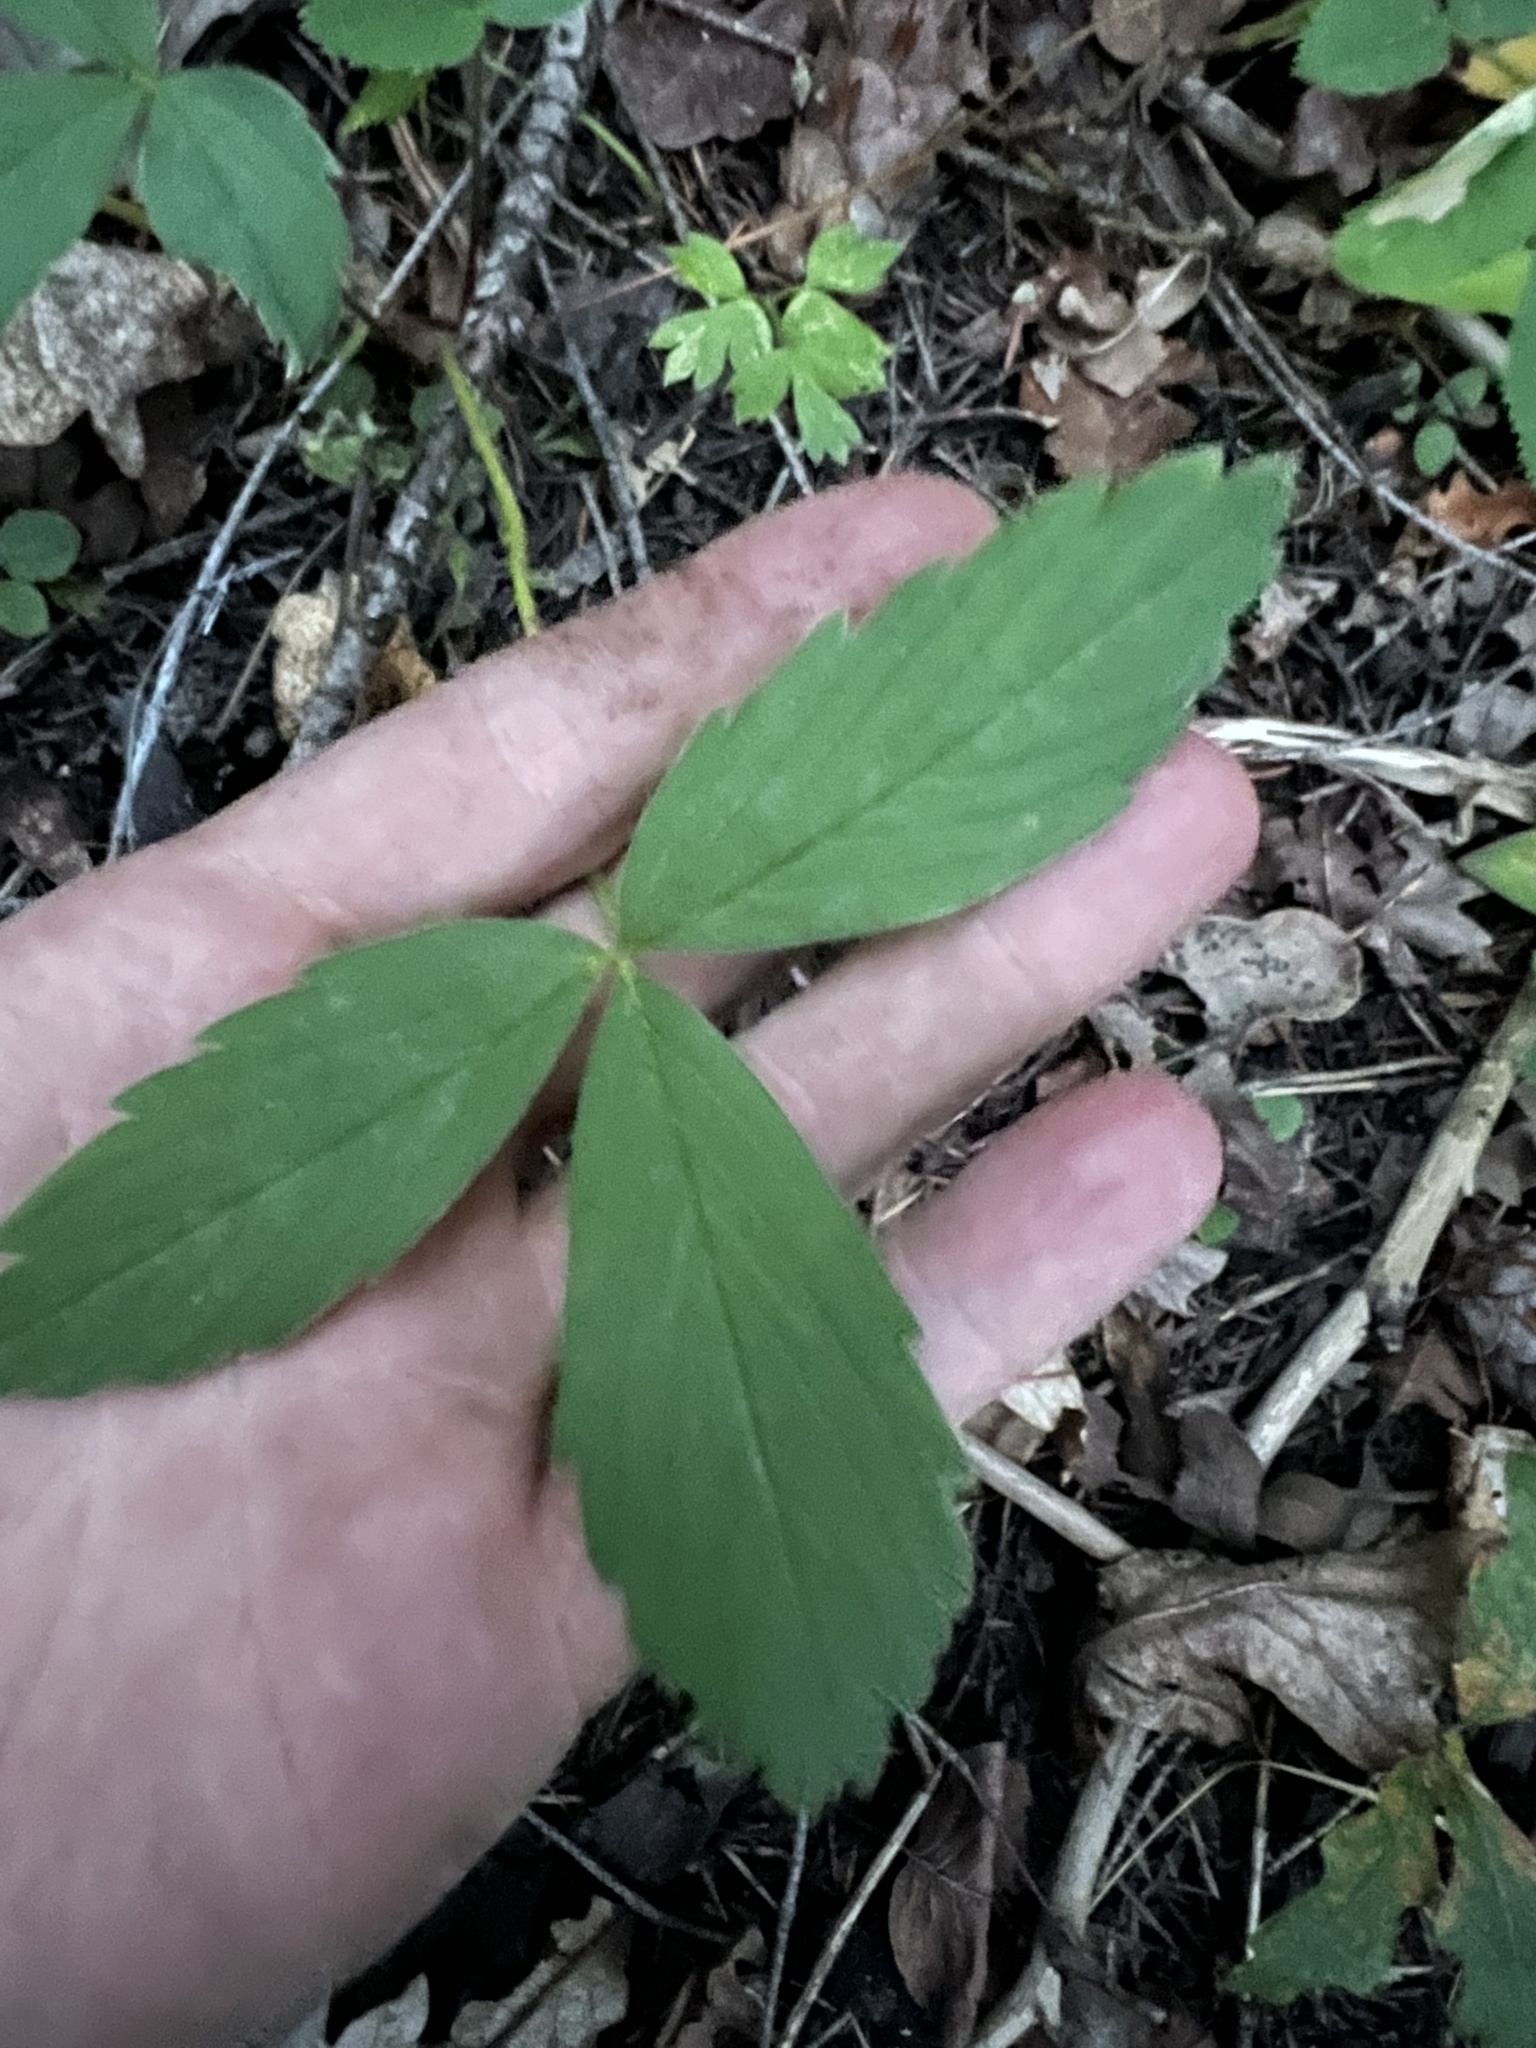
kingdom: Plantae
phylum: Tracheophyta
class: Magnoliopsida
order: Rosales
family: Rosaceae
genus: Fragaria
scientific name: Fragaria virginiana
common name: Thickleaved wild strawberry
